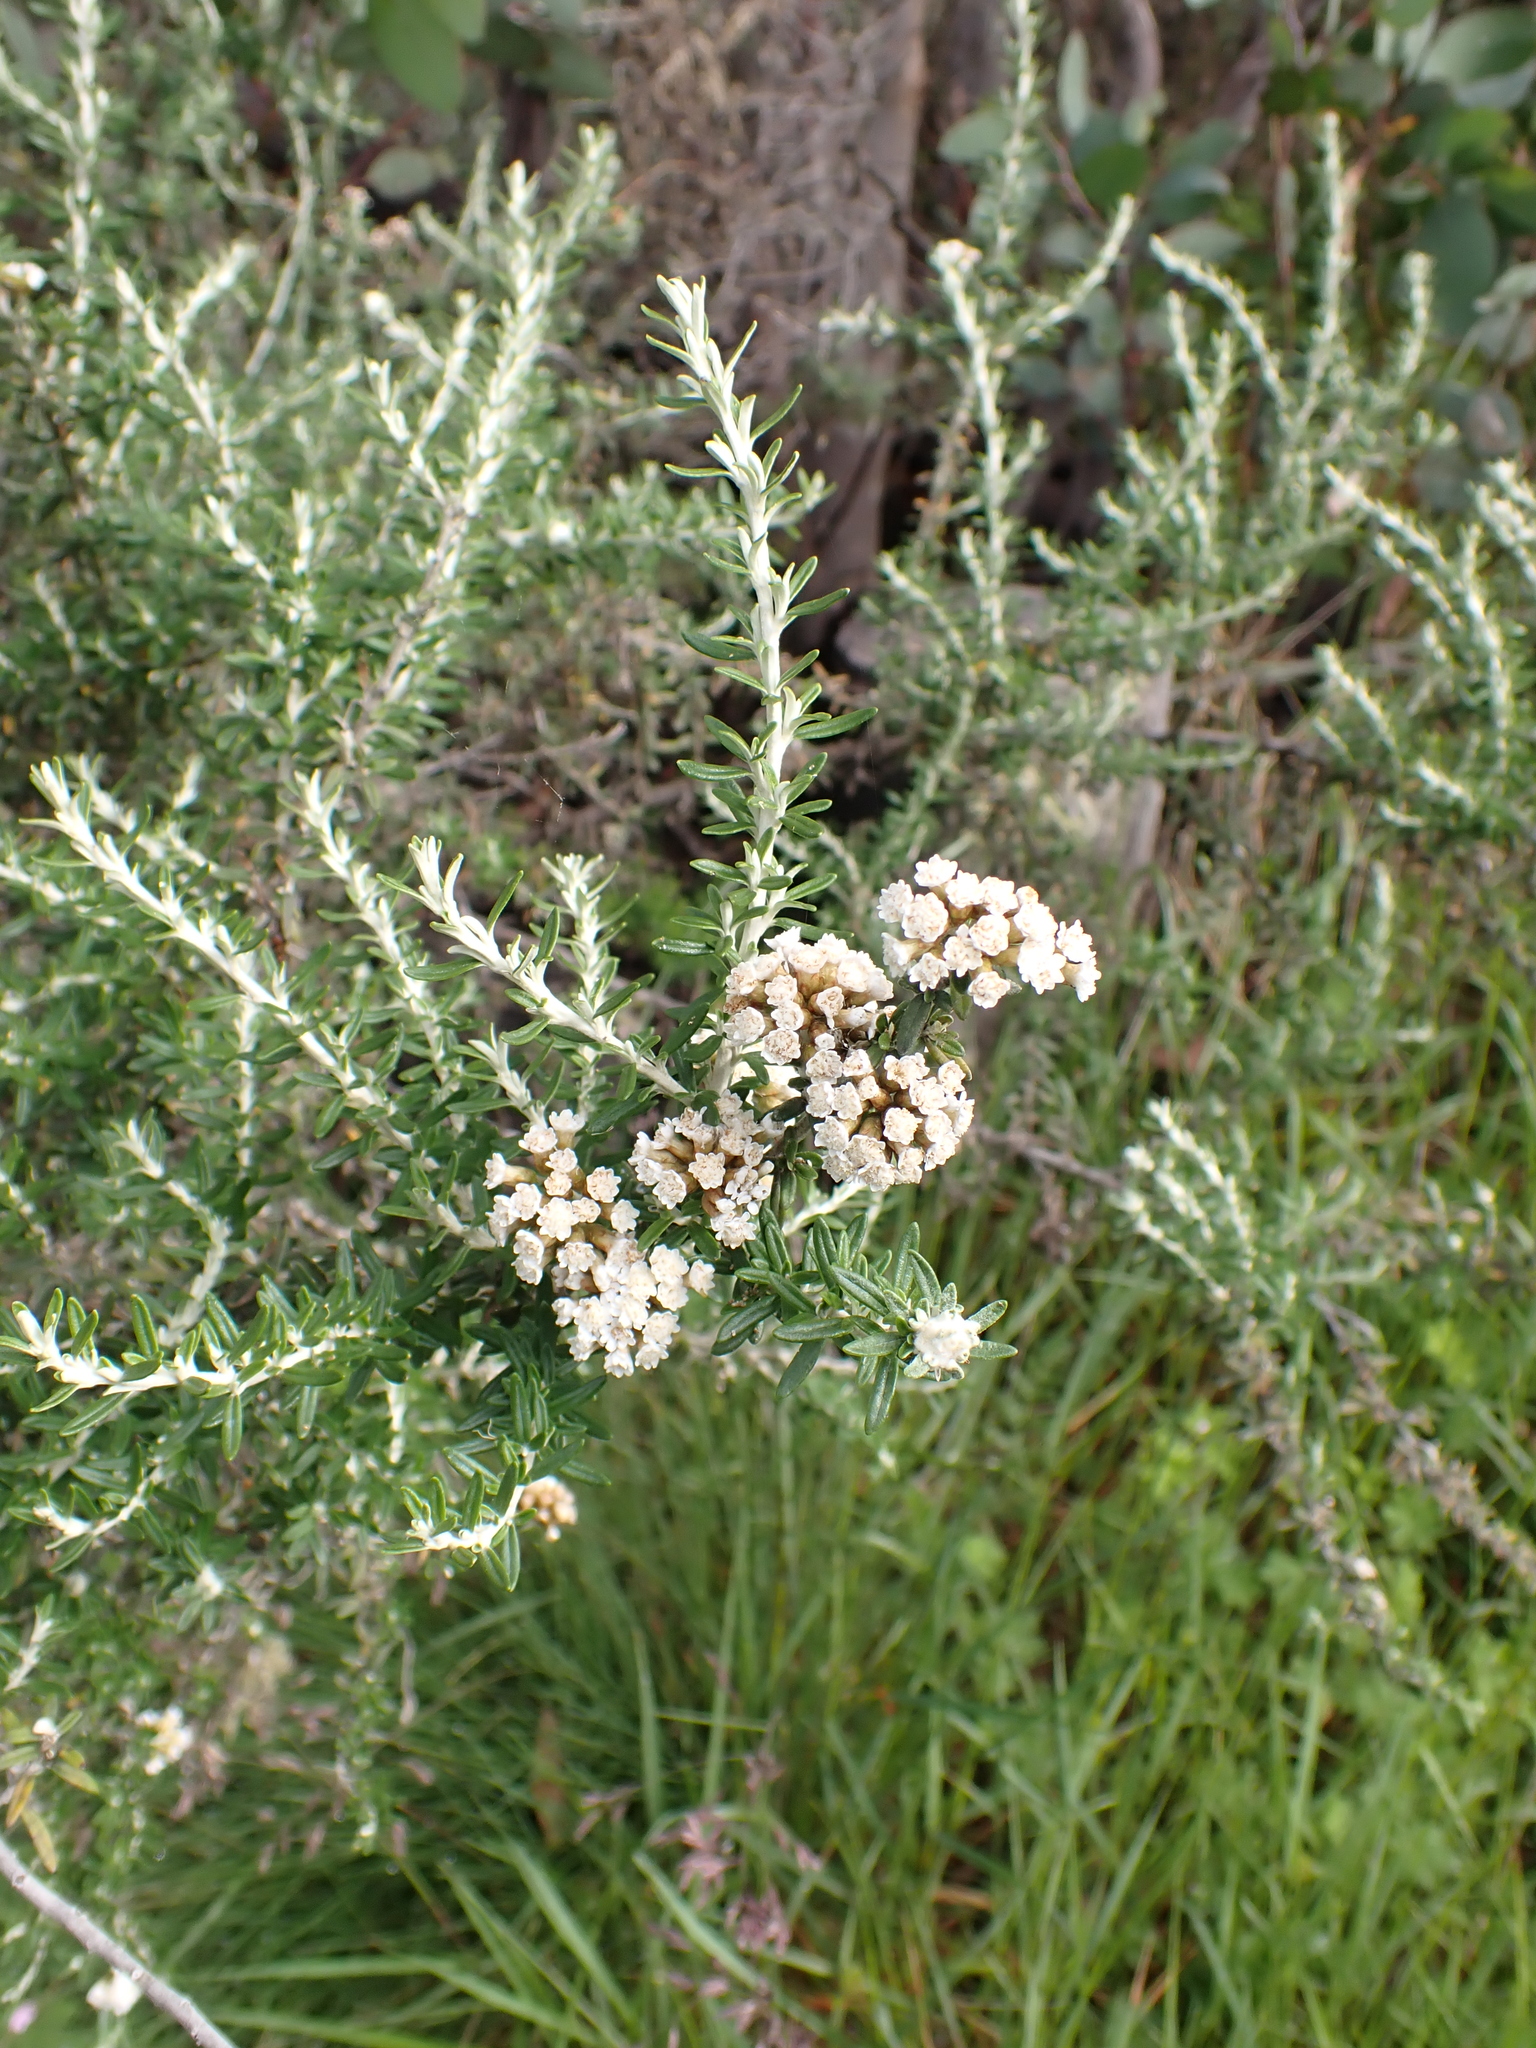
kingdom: Plantae
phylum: Tracheophyta
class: Magnoliopsida
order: Asterales
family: Asteraceae
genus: Ozothamnus
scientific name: Ozothamnus secundiflorus
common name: Cascade everlasting
